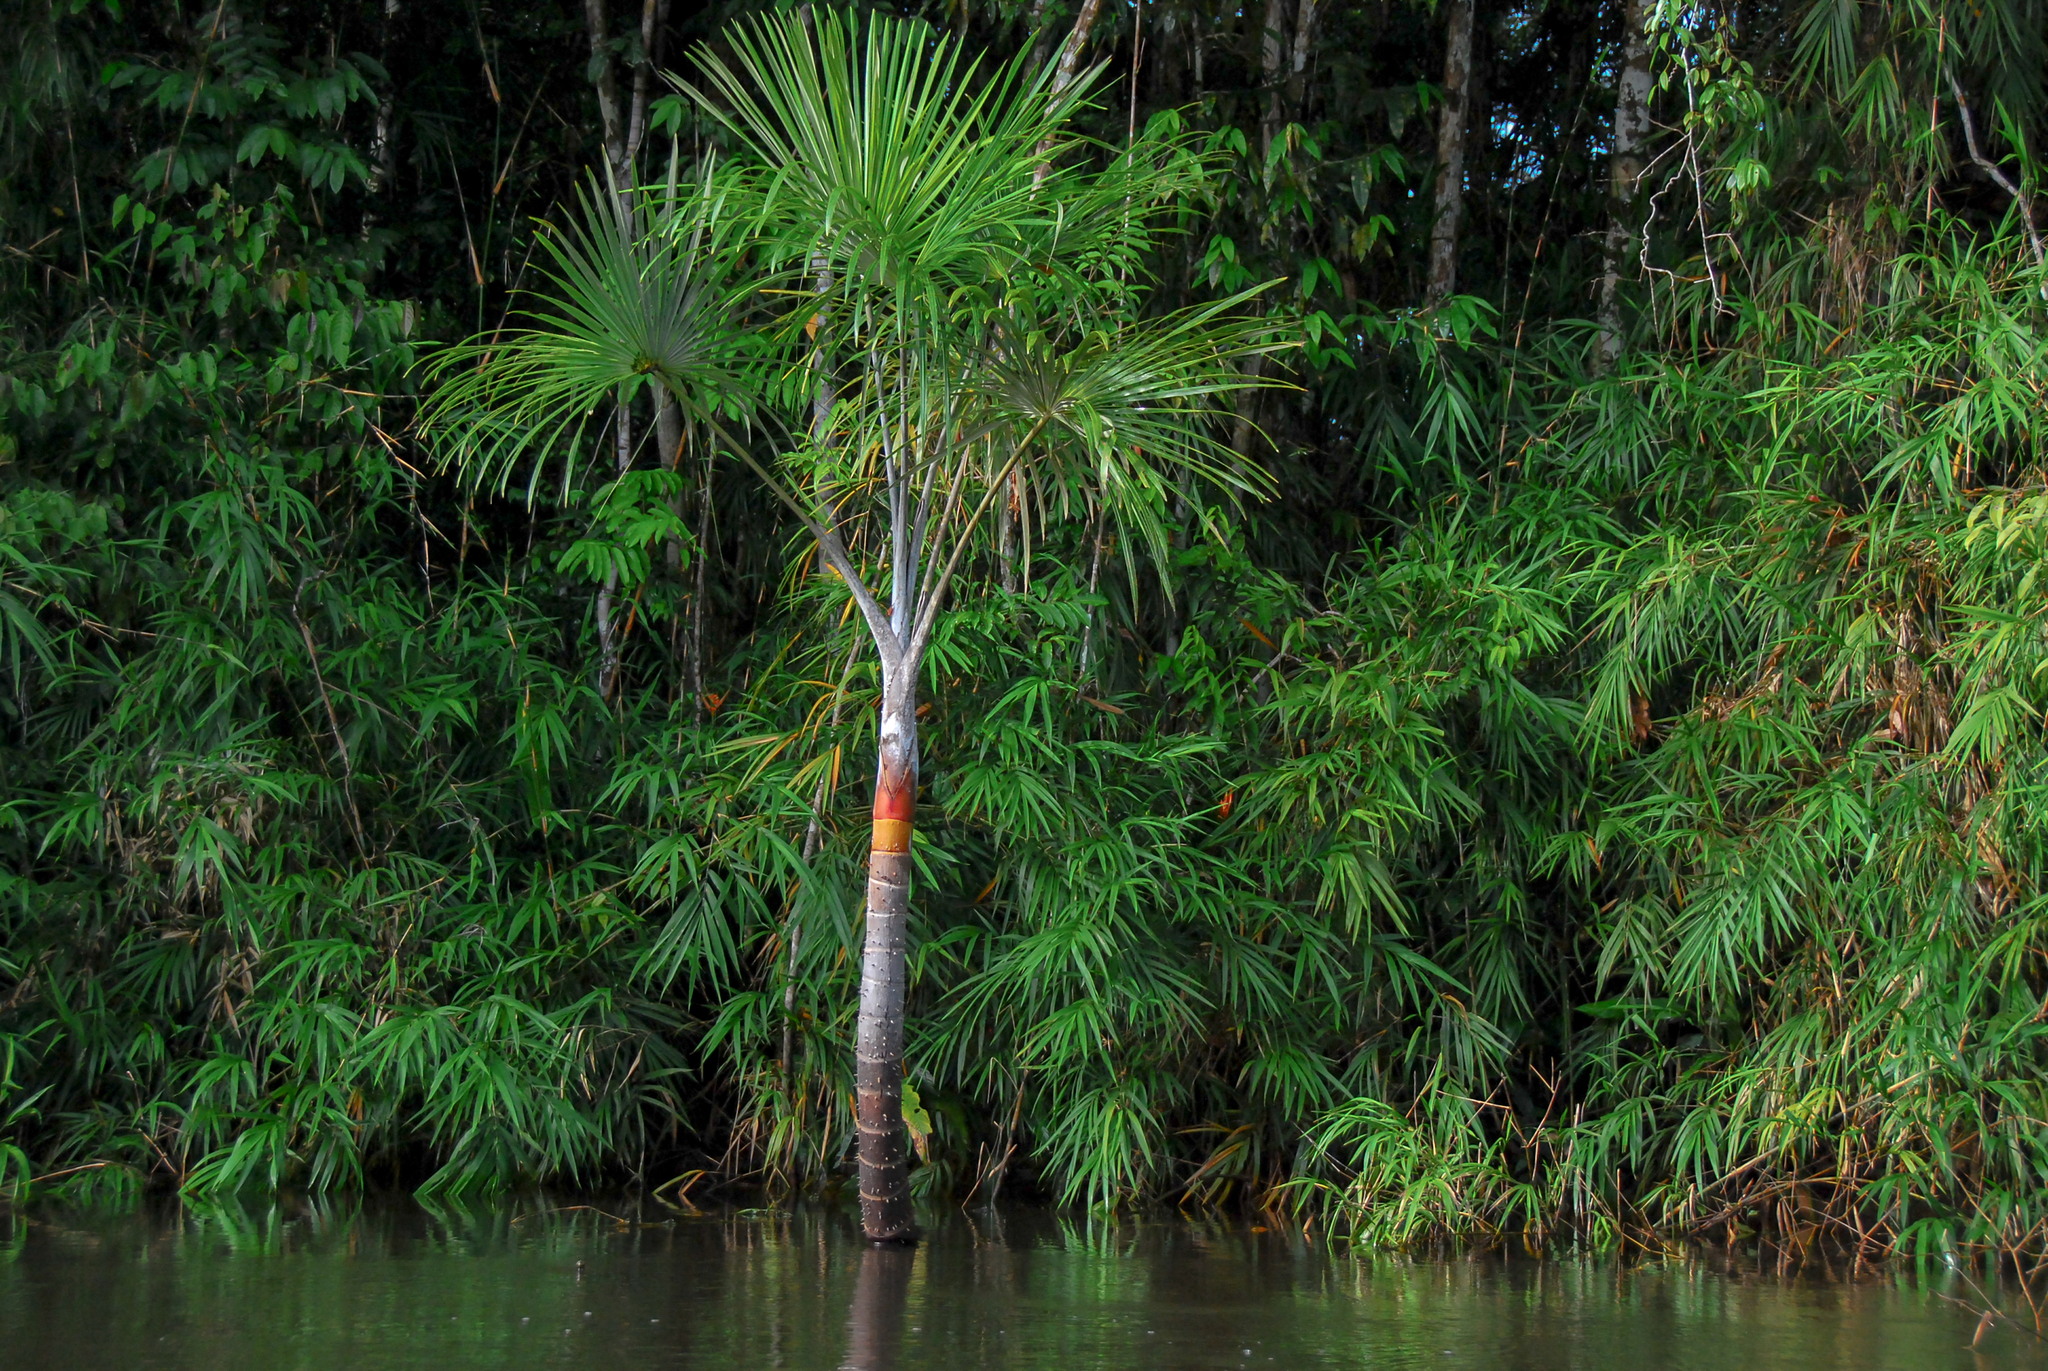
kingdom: Plantae
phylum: Tracheophyta
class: Liliopsida
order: Arecales
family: Arecaceae
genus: Mauritiella
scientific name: Mauritiella armata
